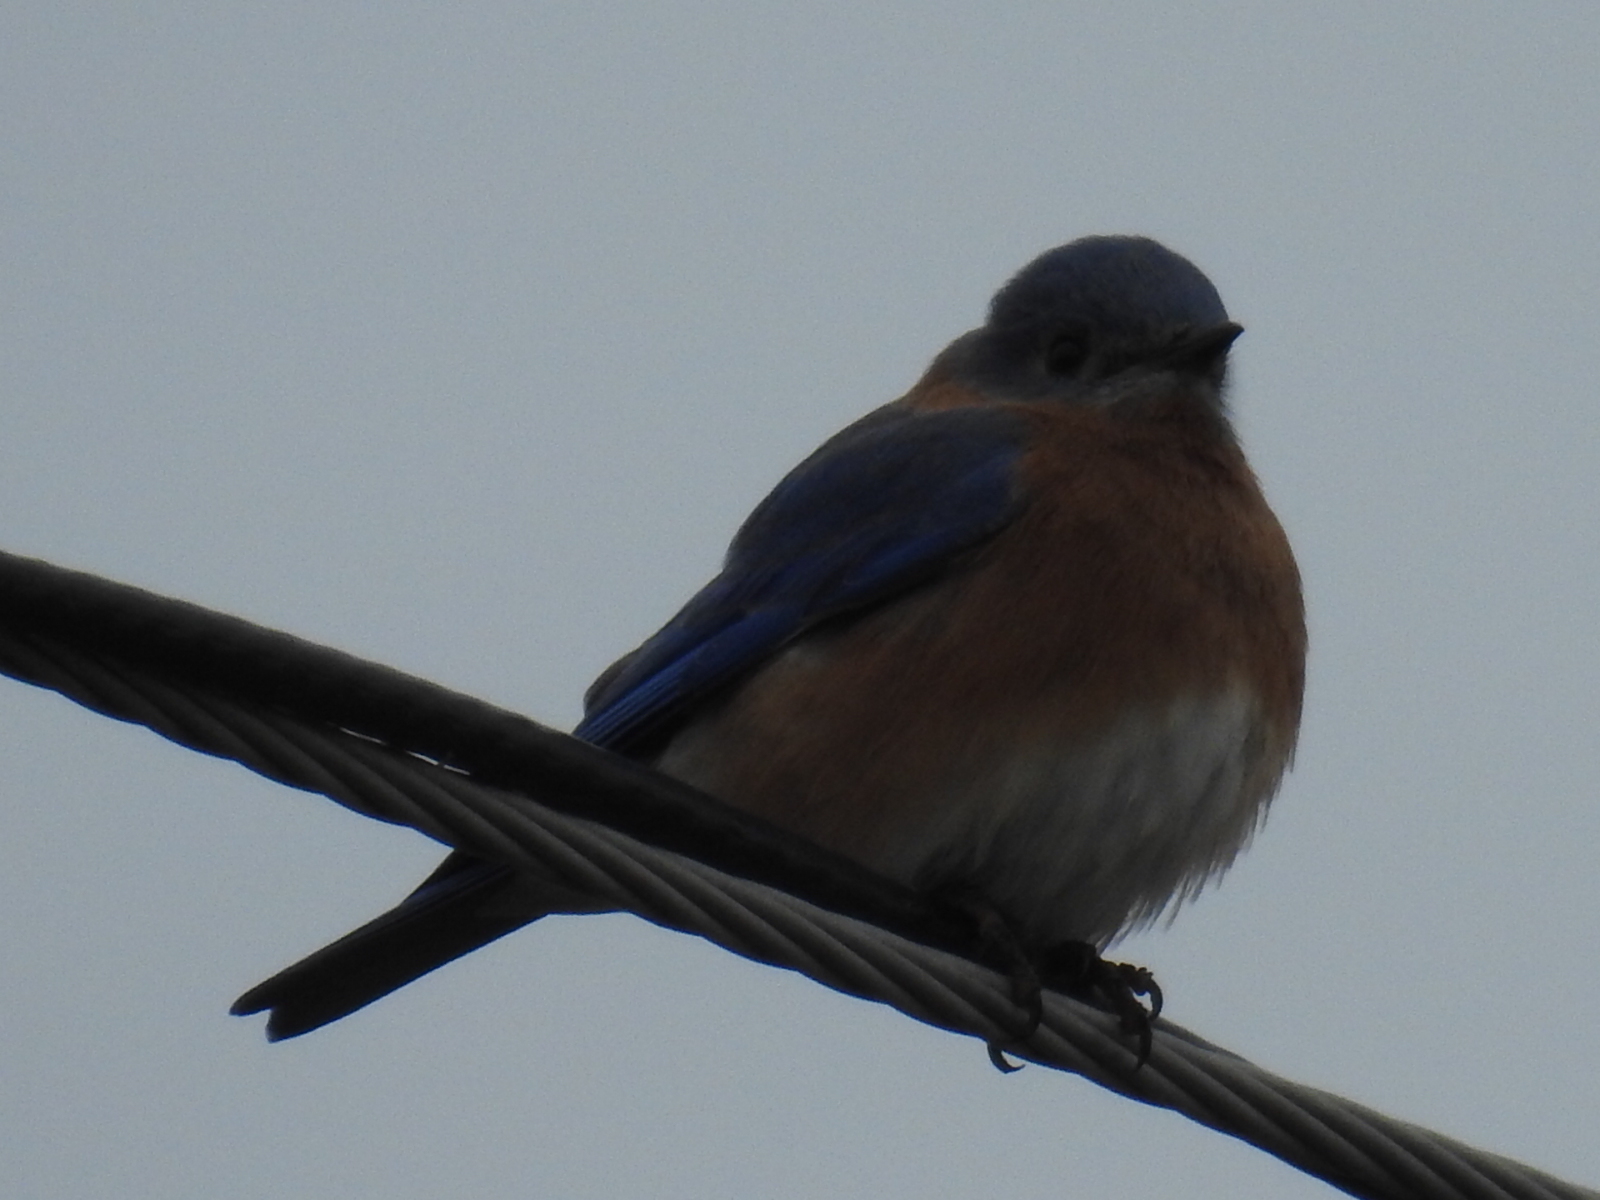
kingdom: Animalia
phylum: Chordata
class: Aves
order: Passeriformes
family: Turdidae
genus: Sialia
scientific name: Sialia sialis
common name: Eastern bluebird
